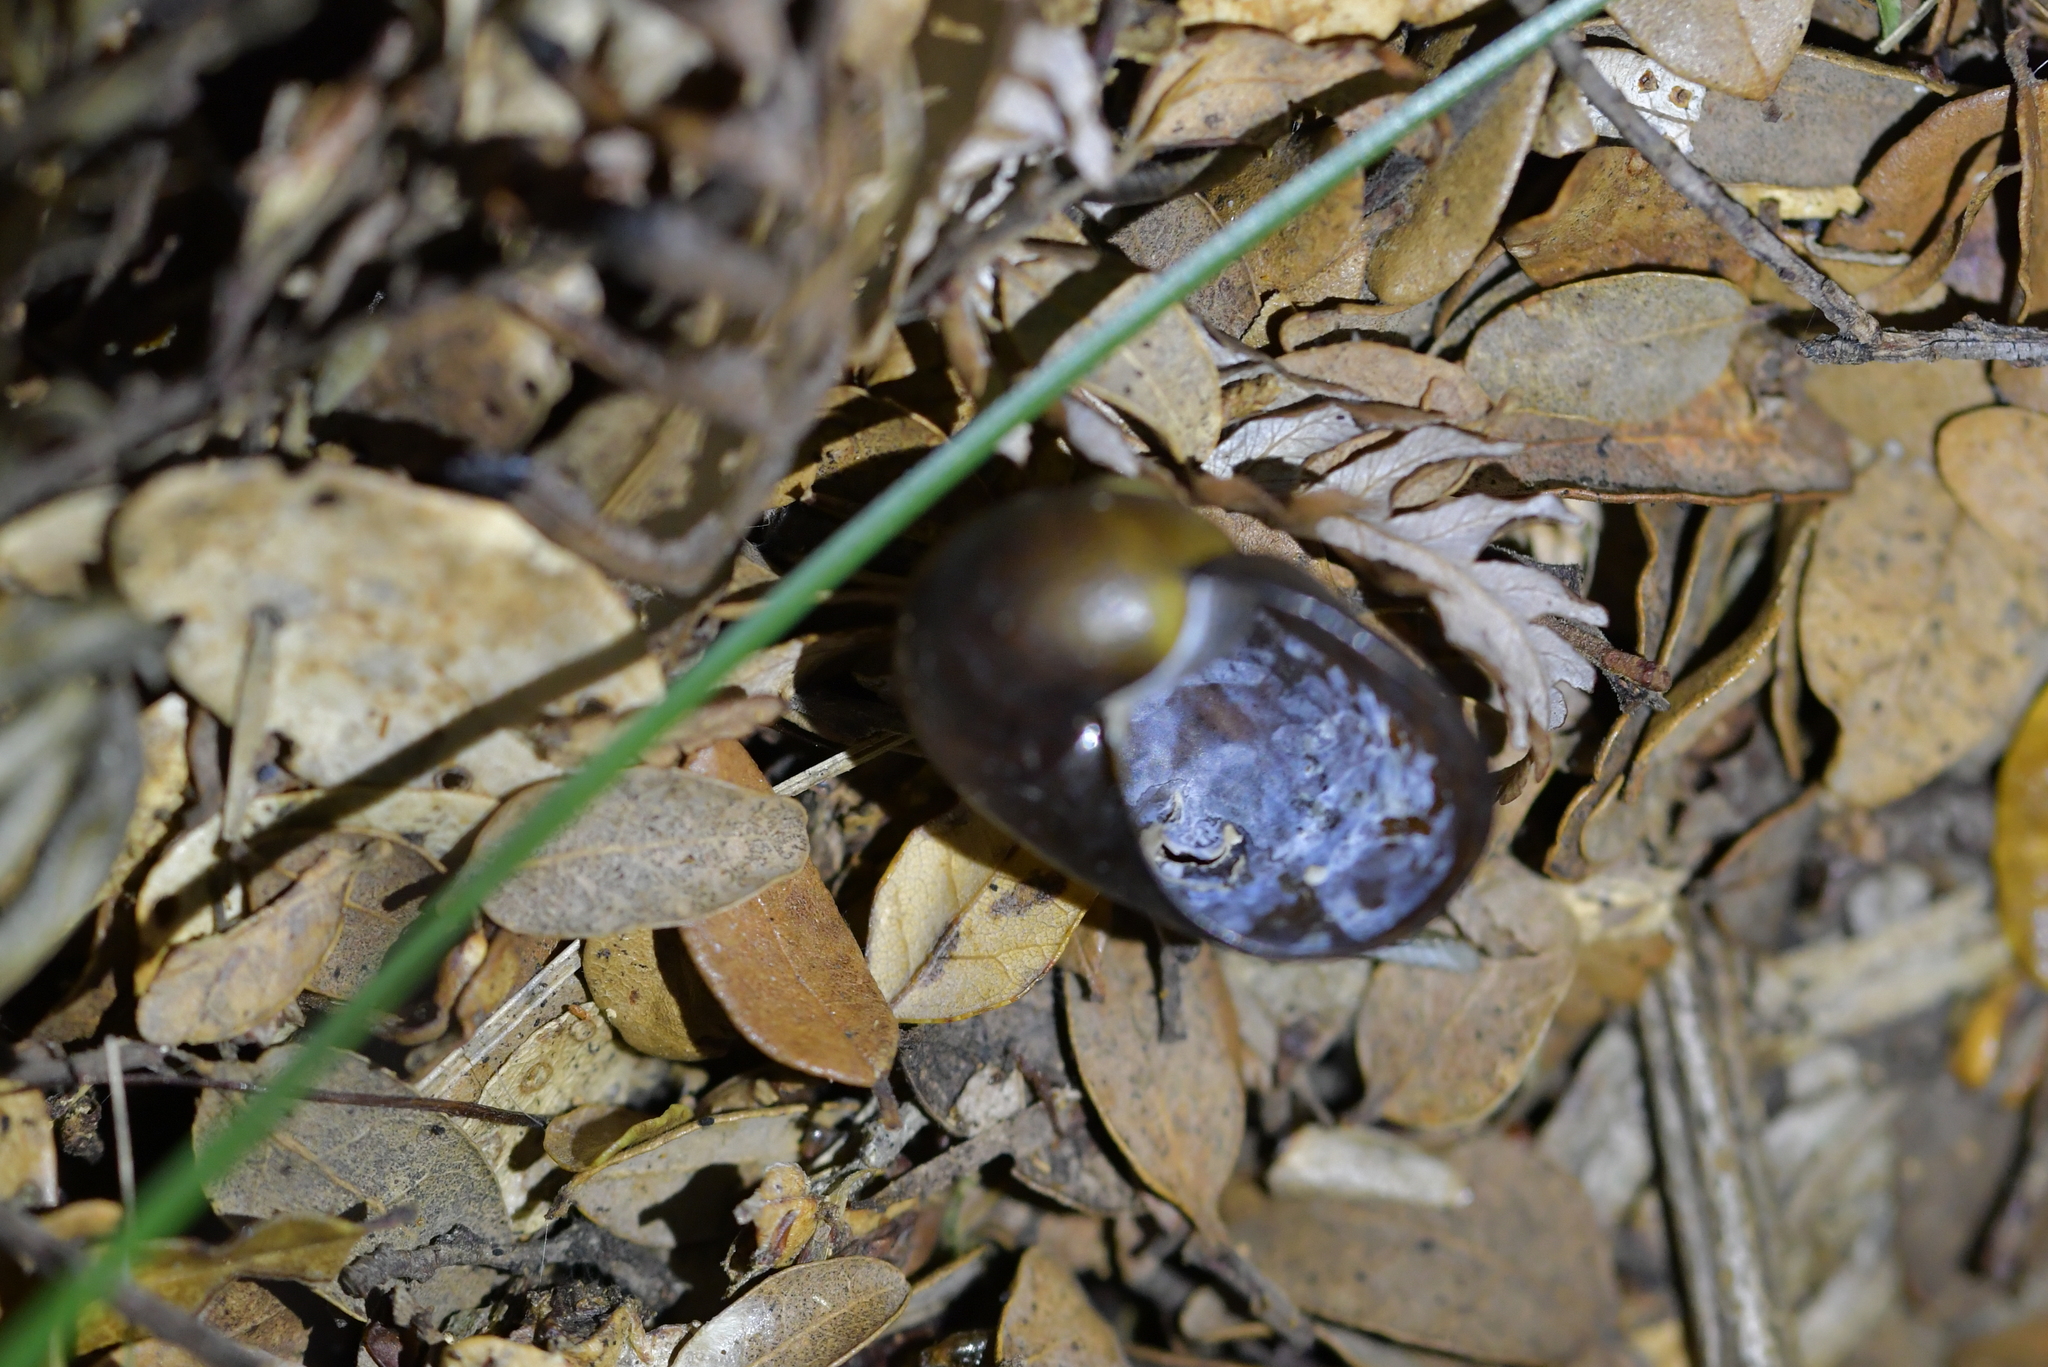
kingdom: Animalia
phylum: Mollusca
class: Gastropoda
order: Stylommatophora
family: Rhytididae
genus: Wainuia
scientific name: Wainuia urnula
